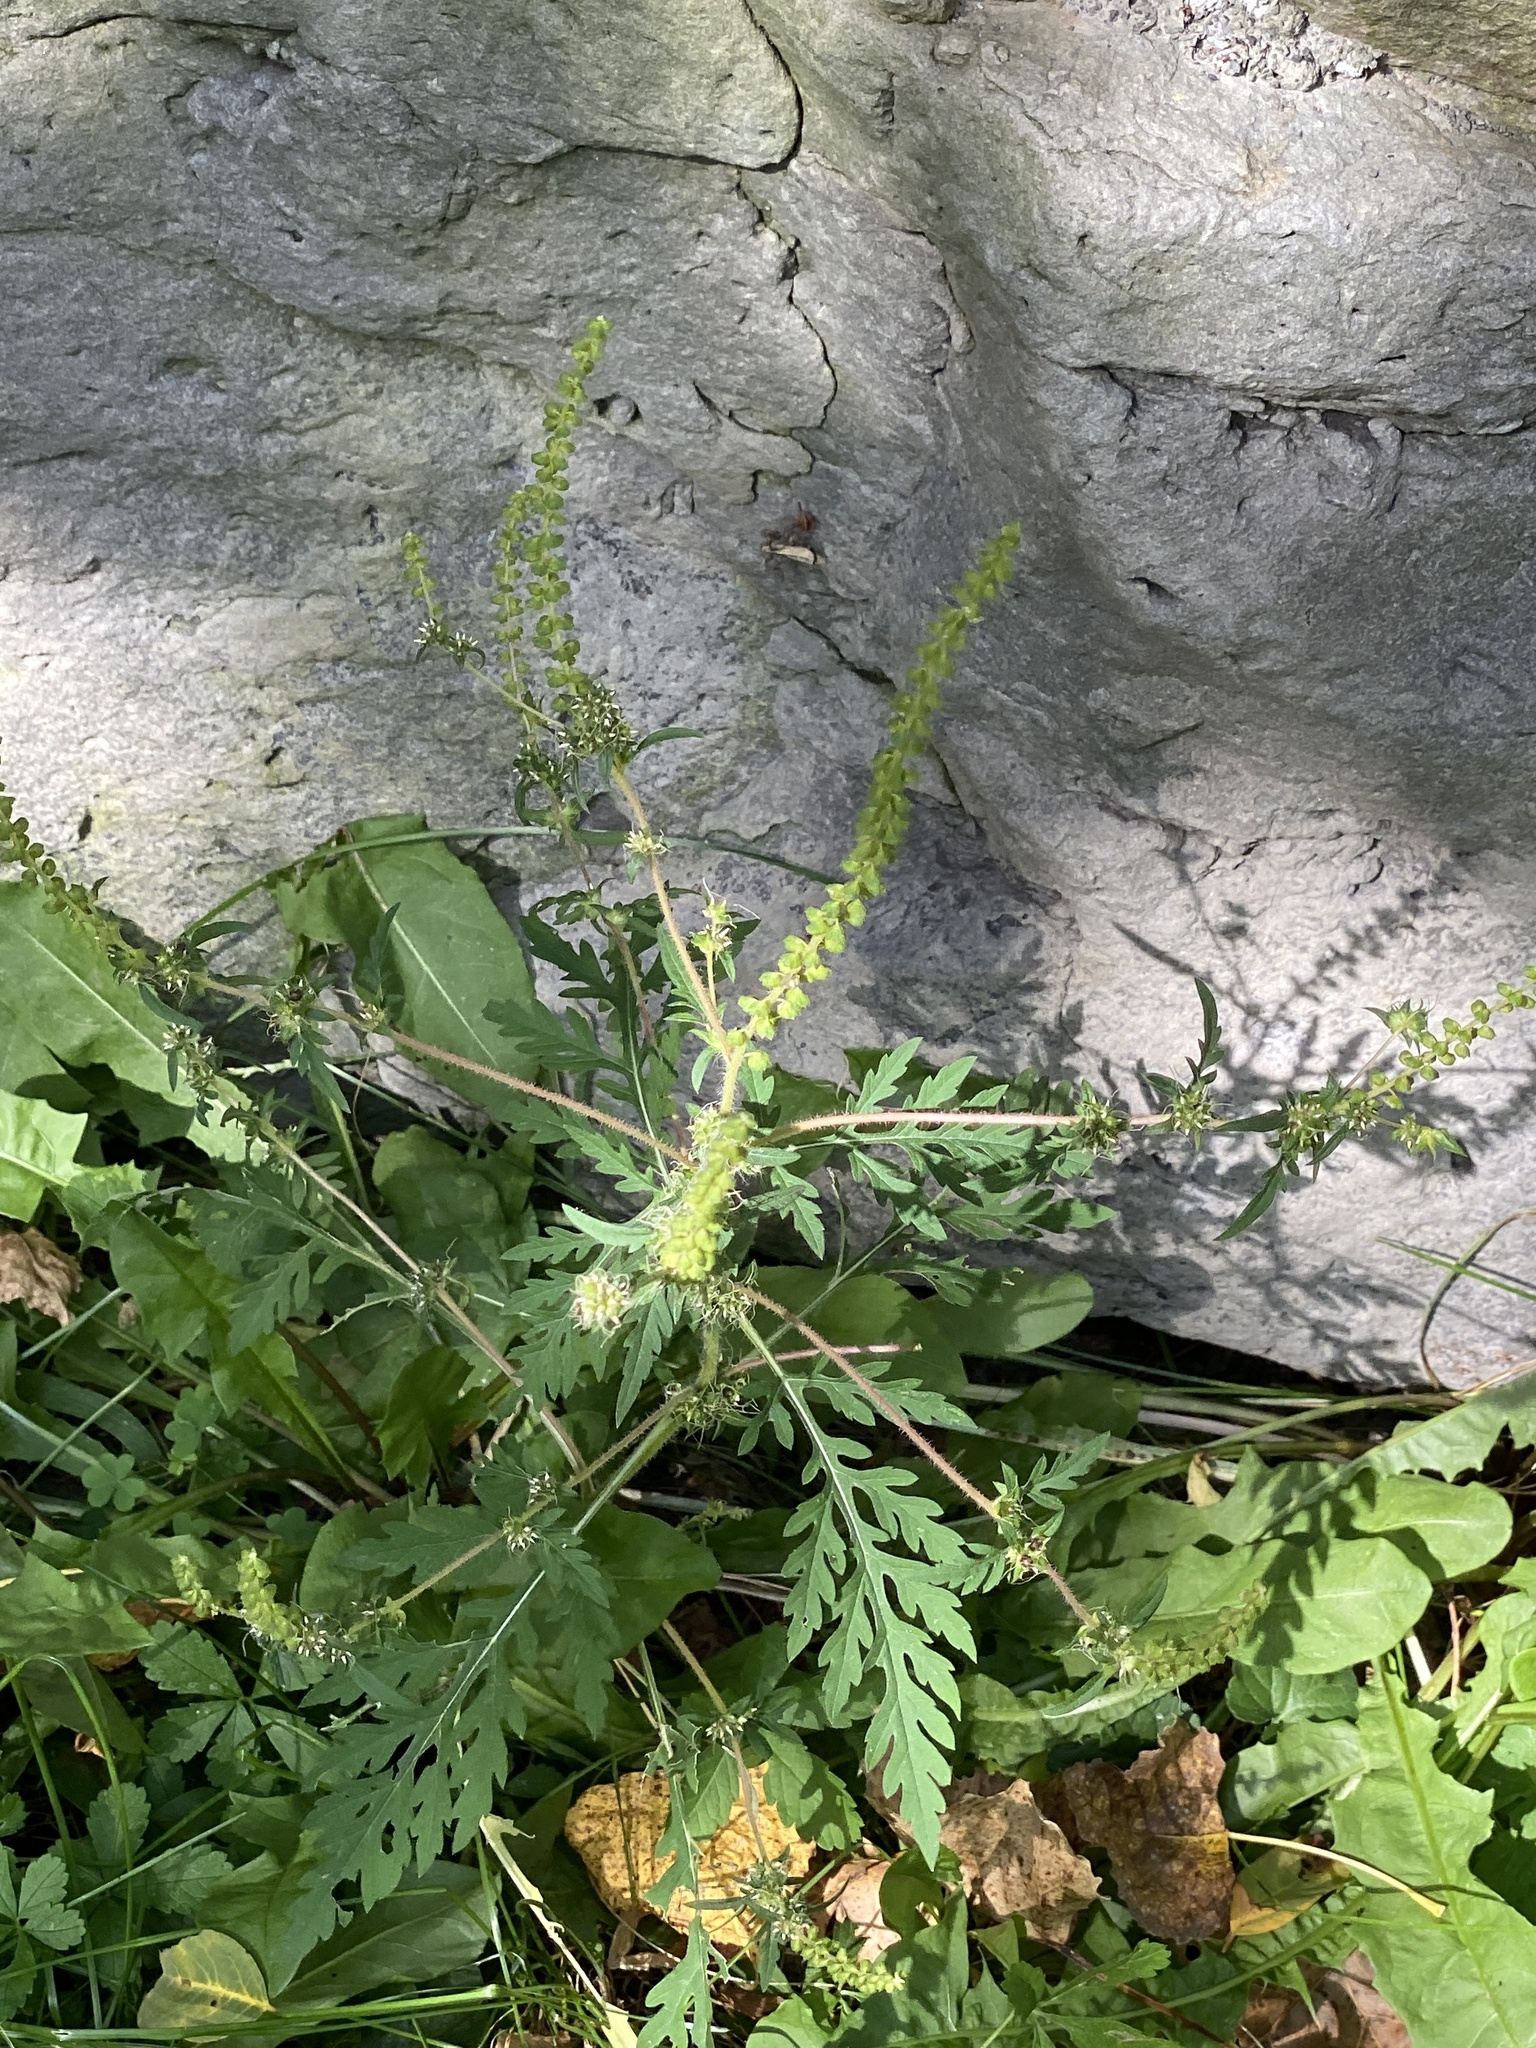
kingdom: Plantae
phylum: Tracheophyta
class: Magnoliopsida
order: Asterales
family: Asteraceae
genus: Ambrosia
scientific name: Ambrosia artemisiifolia
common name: Annual ragweed
